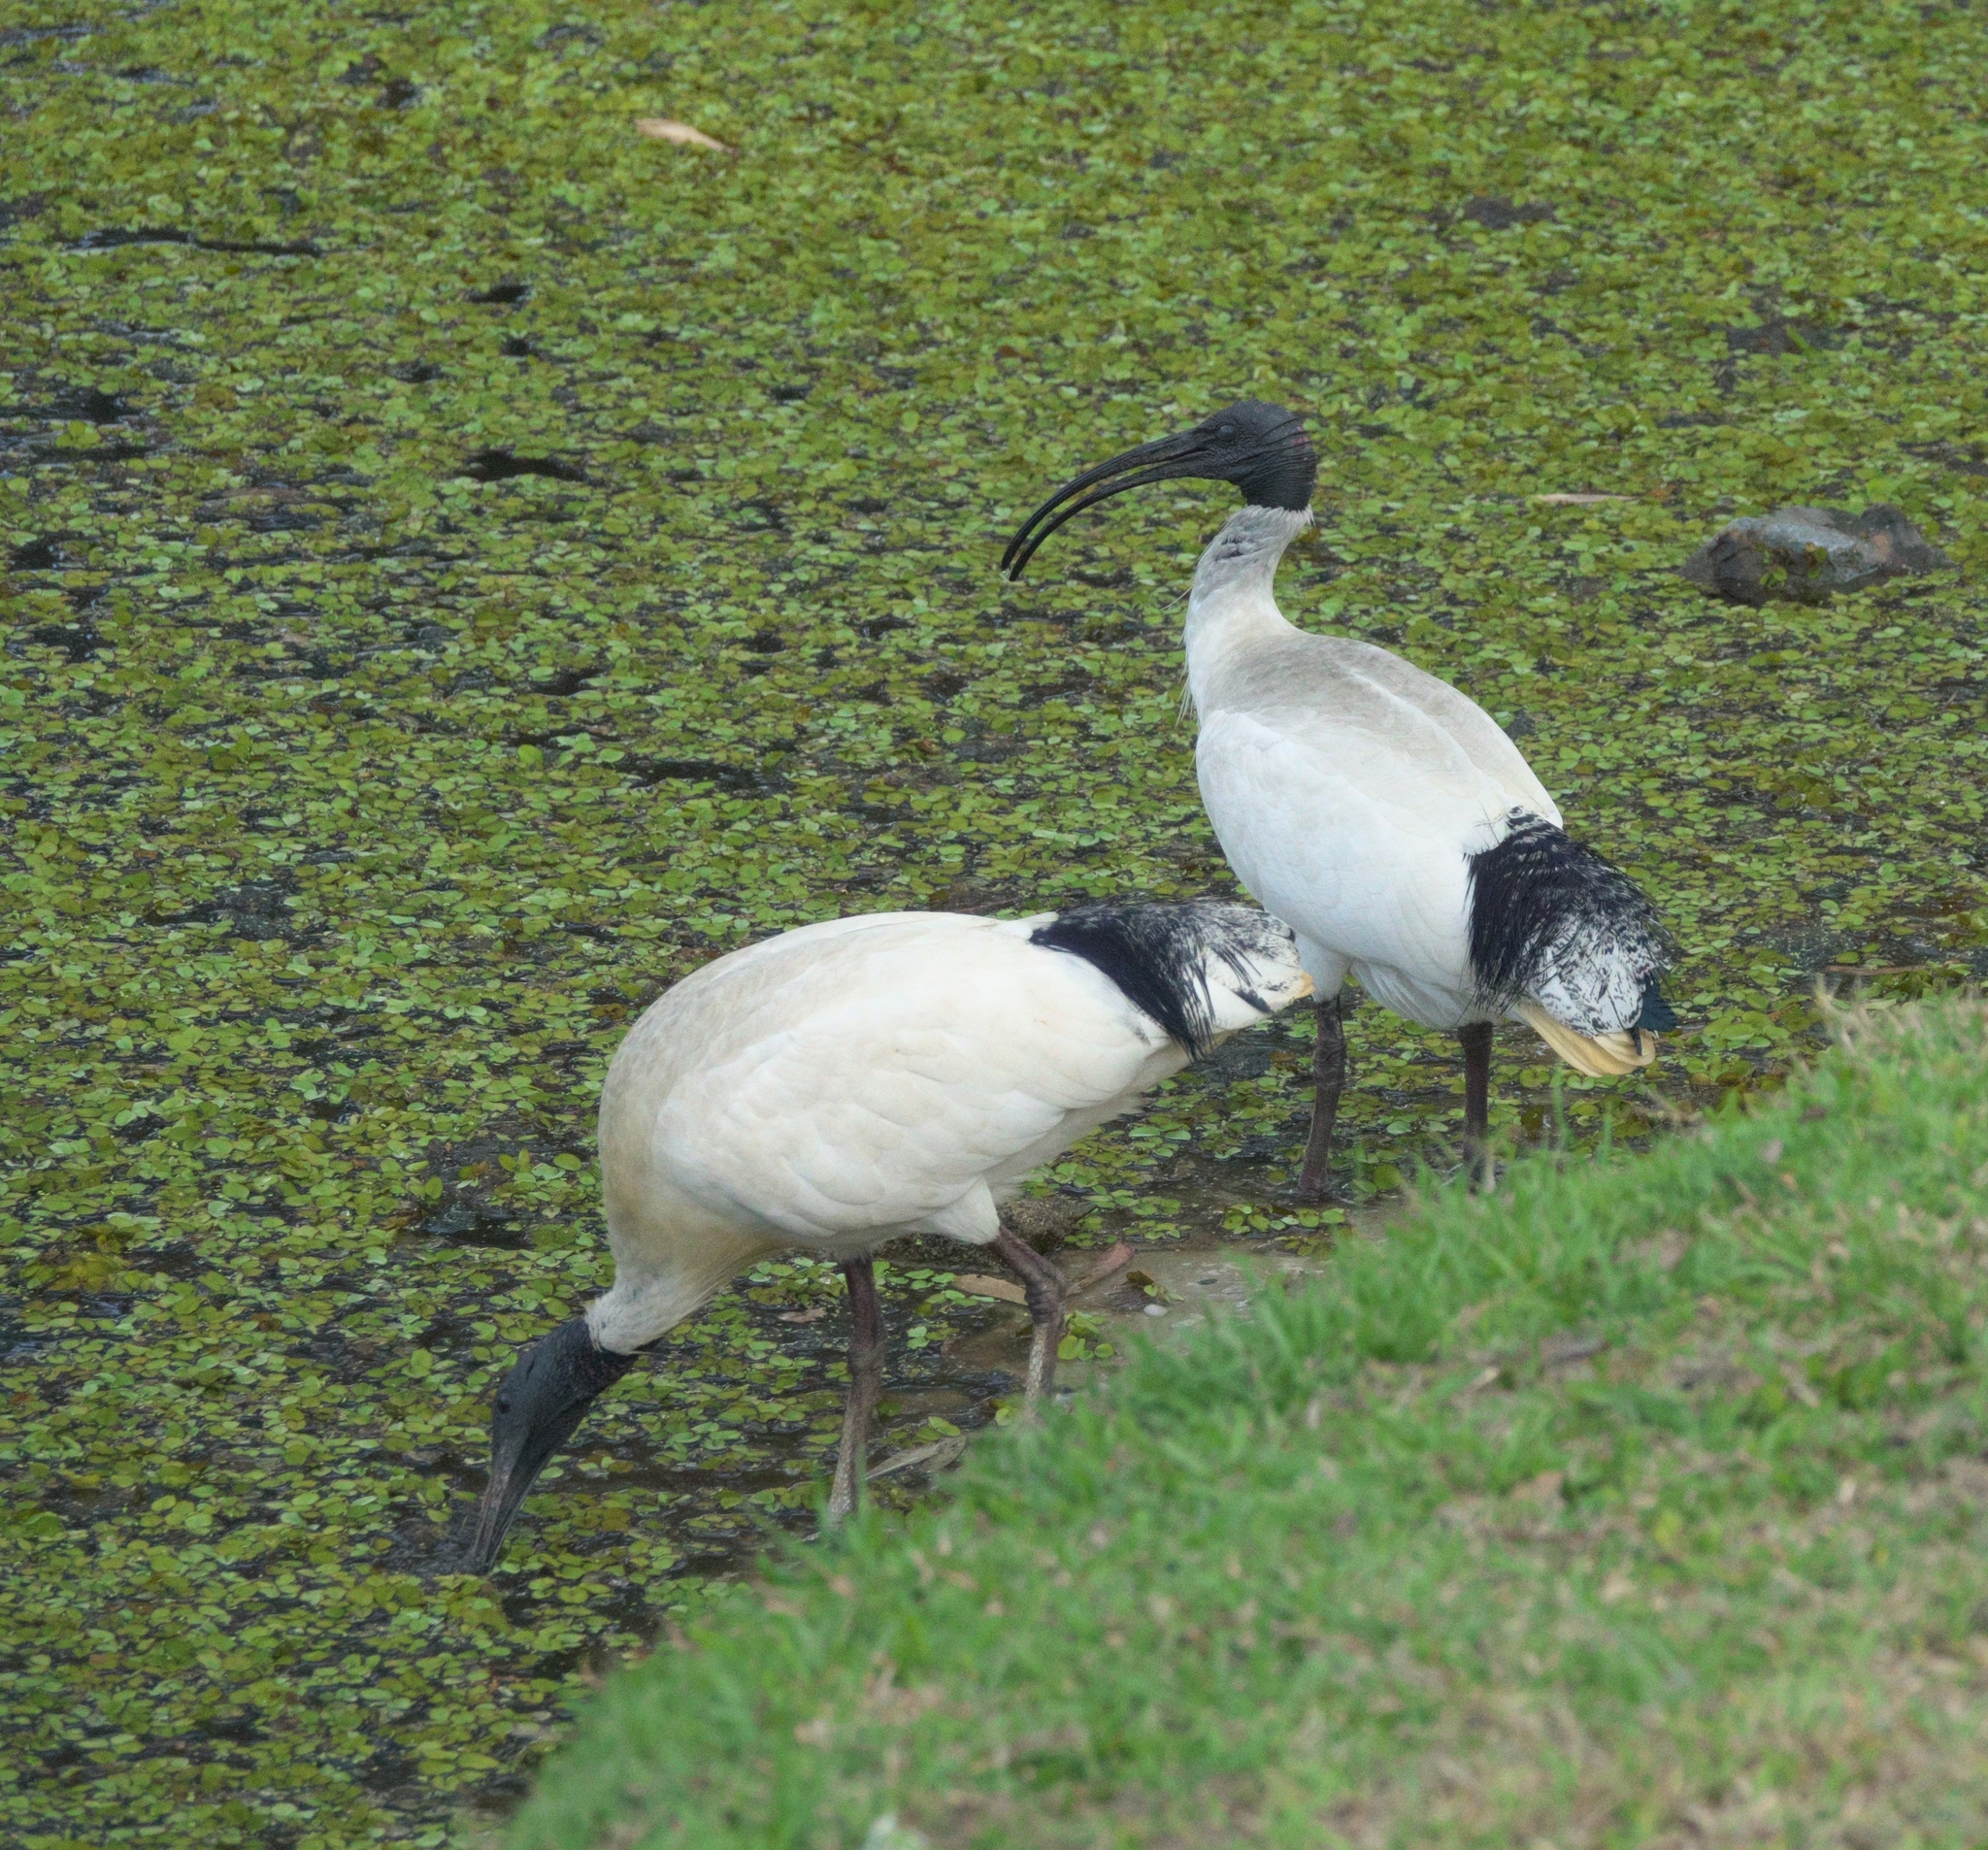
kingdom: Animalia
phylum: Chordata
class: Aves
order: Pelecaniformes
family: Threskiornithidae
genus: Threskiornis
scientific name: Threskiornis molucca
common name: Australian white ibis
